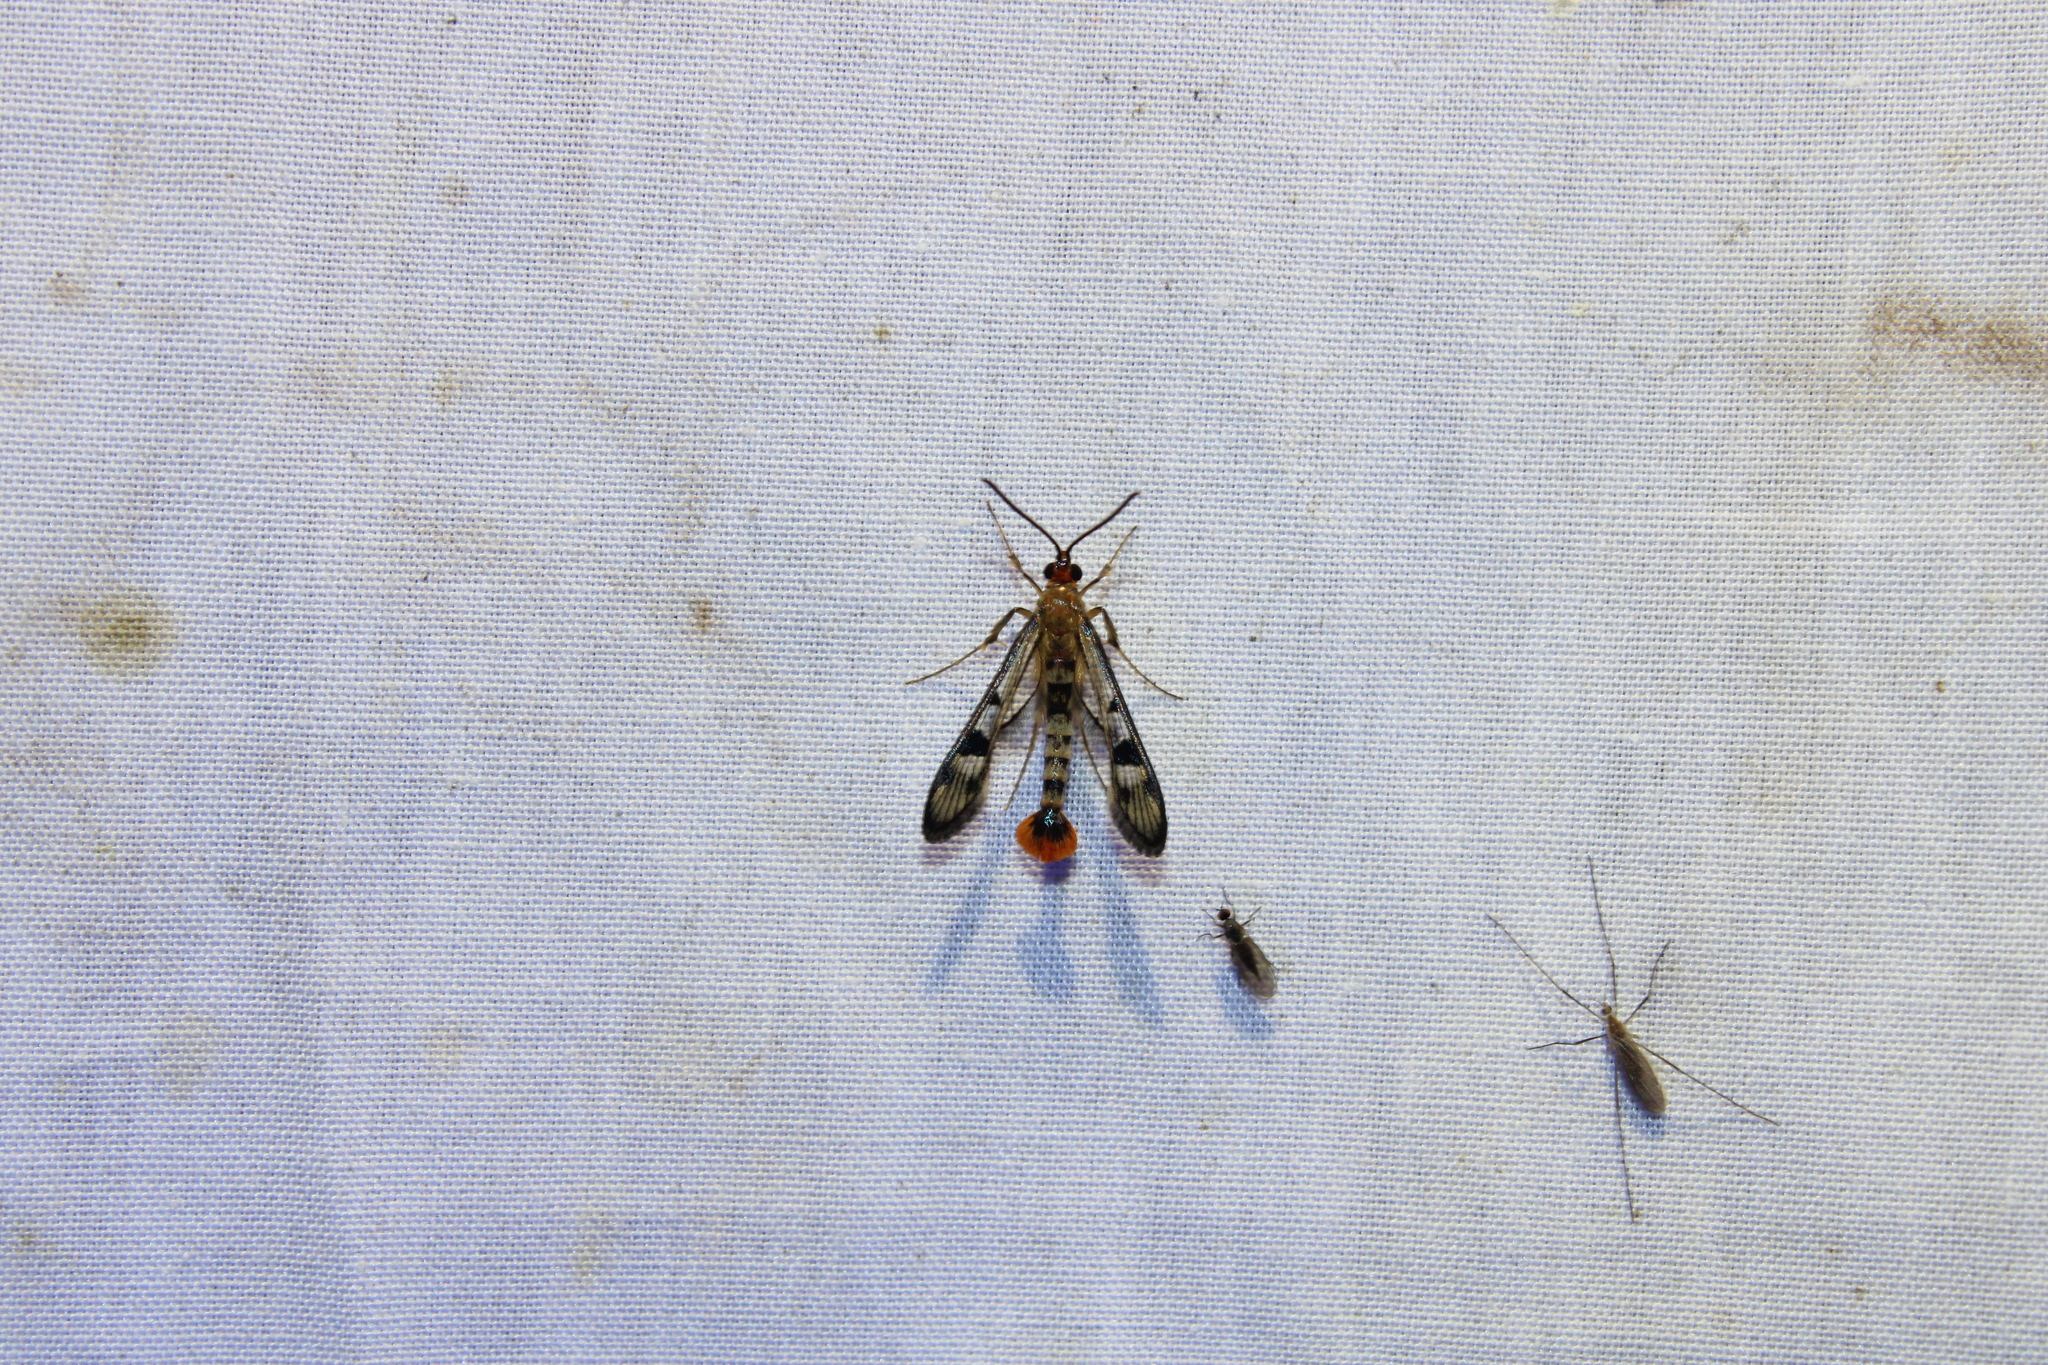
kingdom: Animalia
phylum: Arthropoda
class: Insecta
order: Lepidoptera
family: Sesiidae
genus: Synanthedon
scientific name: Synanthedon acerni
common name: Maple callus borer moth
